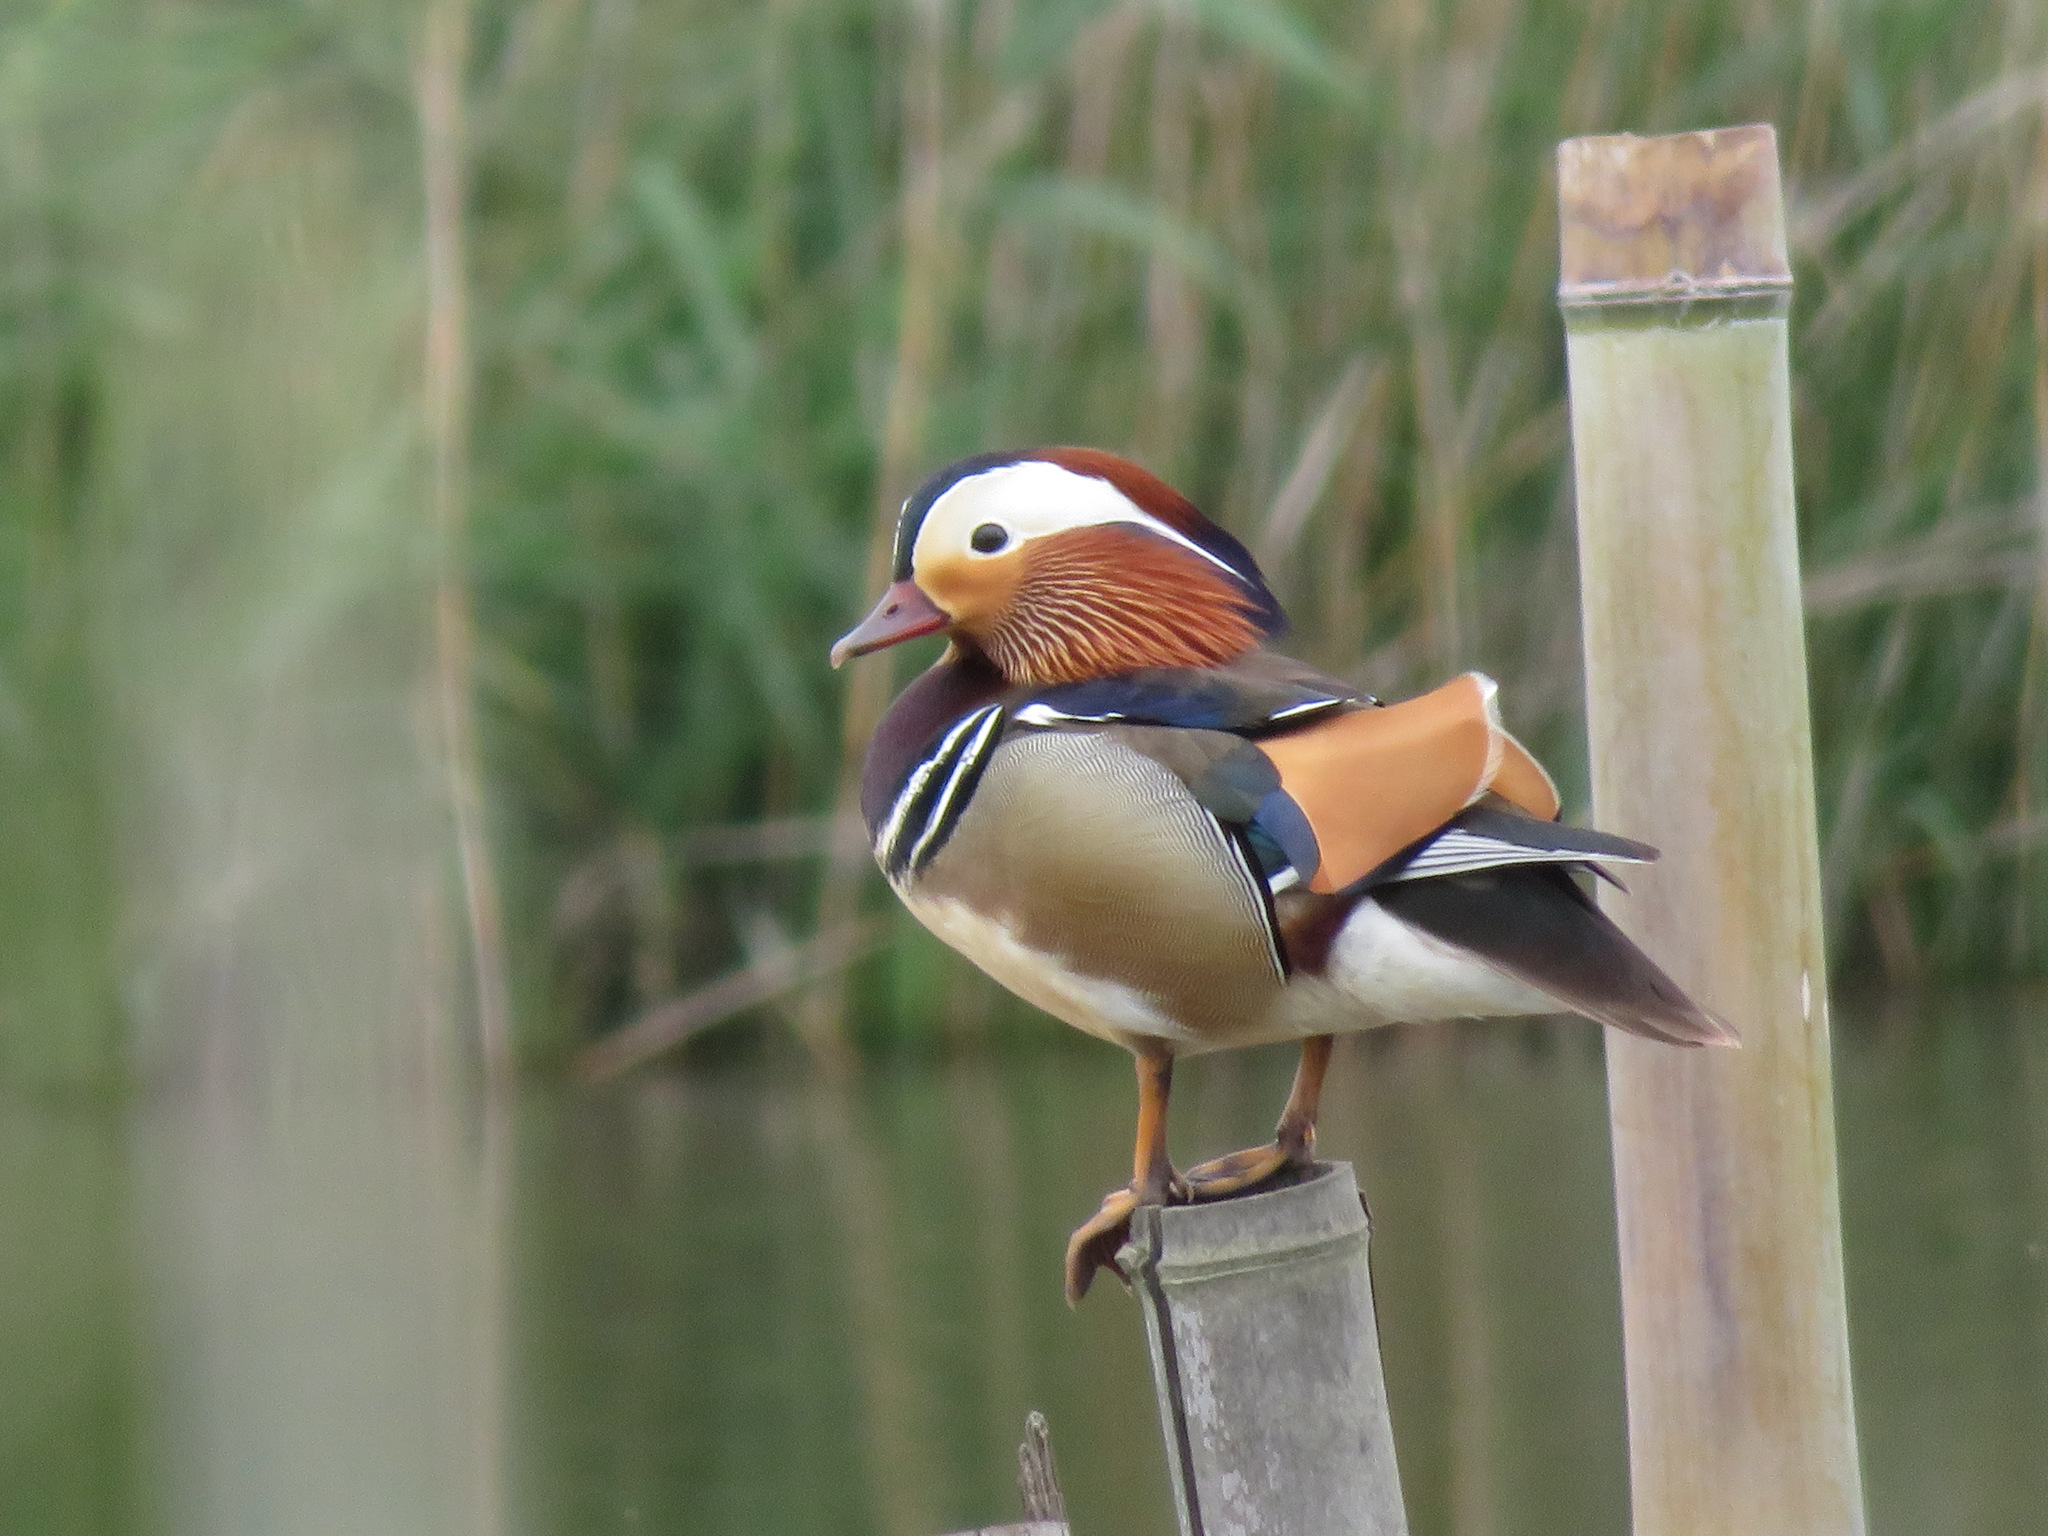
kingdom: Animalia
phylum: Chordata
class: Aves
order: Anseriformes
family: Anatidae
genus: Aix
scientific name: Aix galericulata
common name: Mandarin duck
